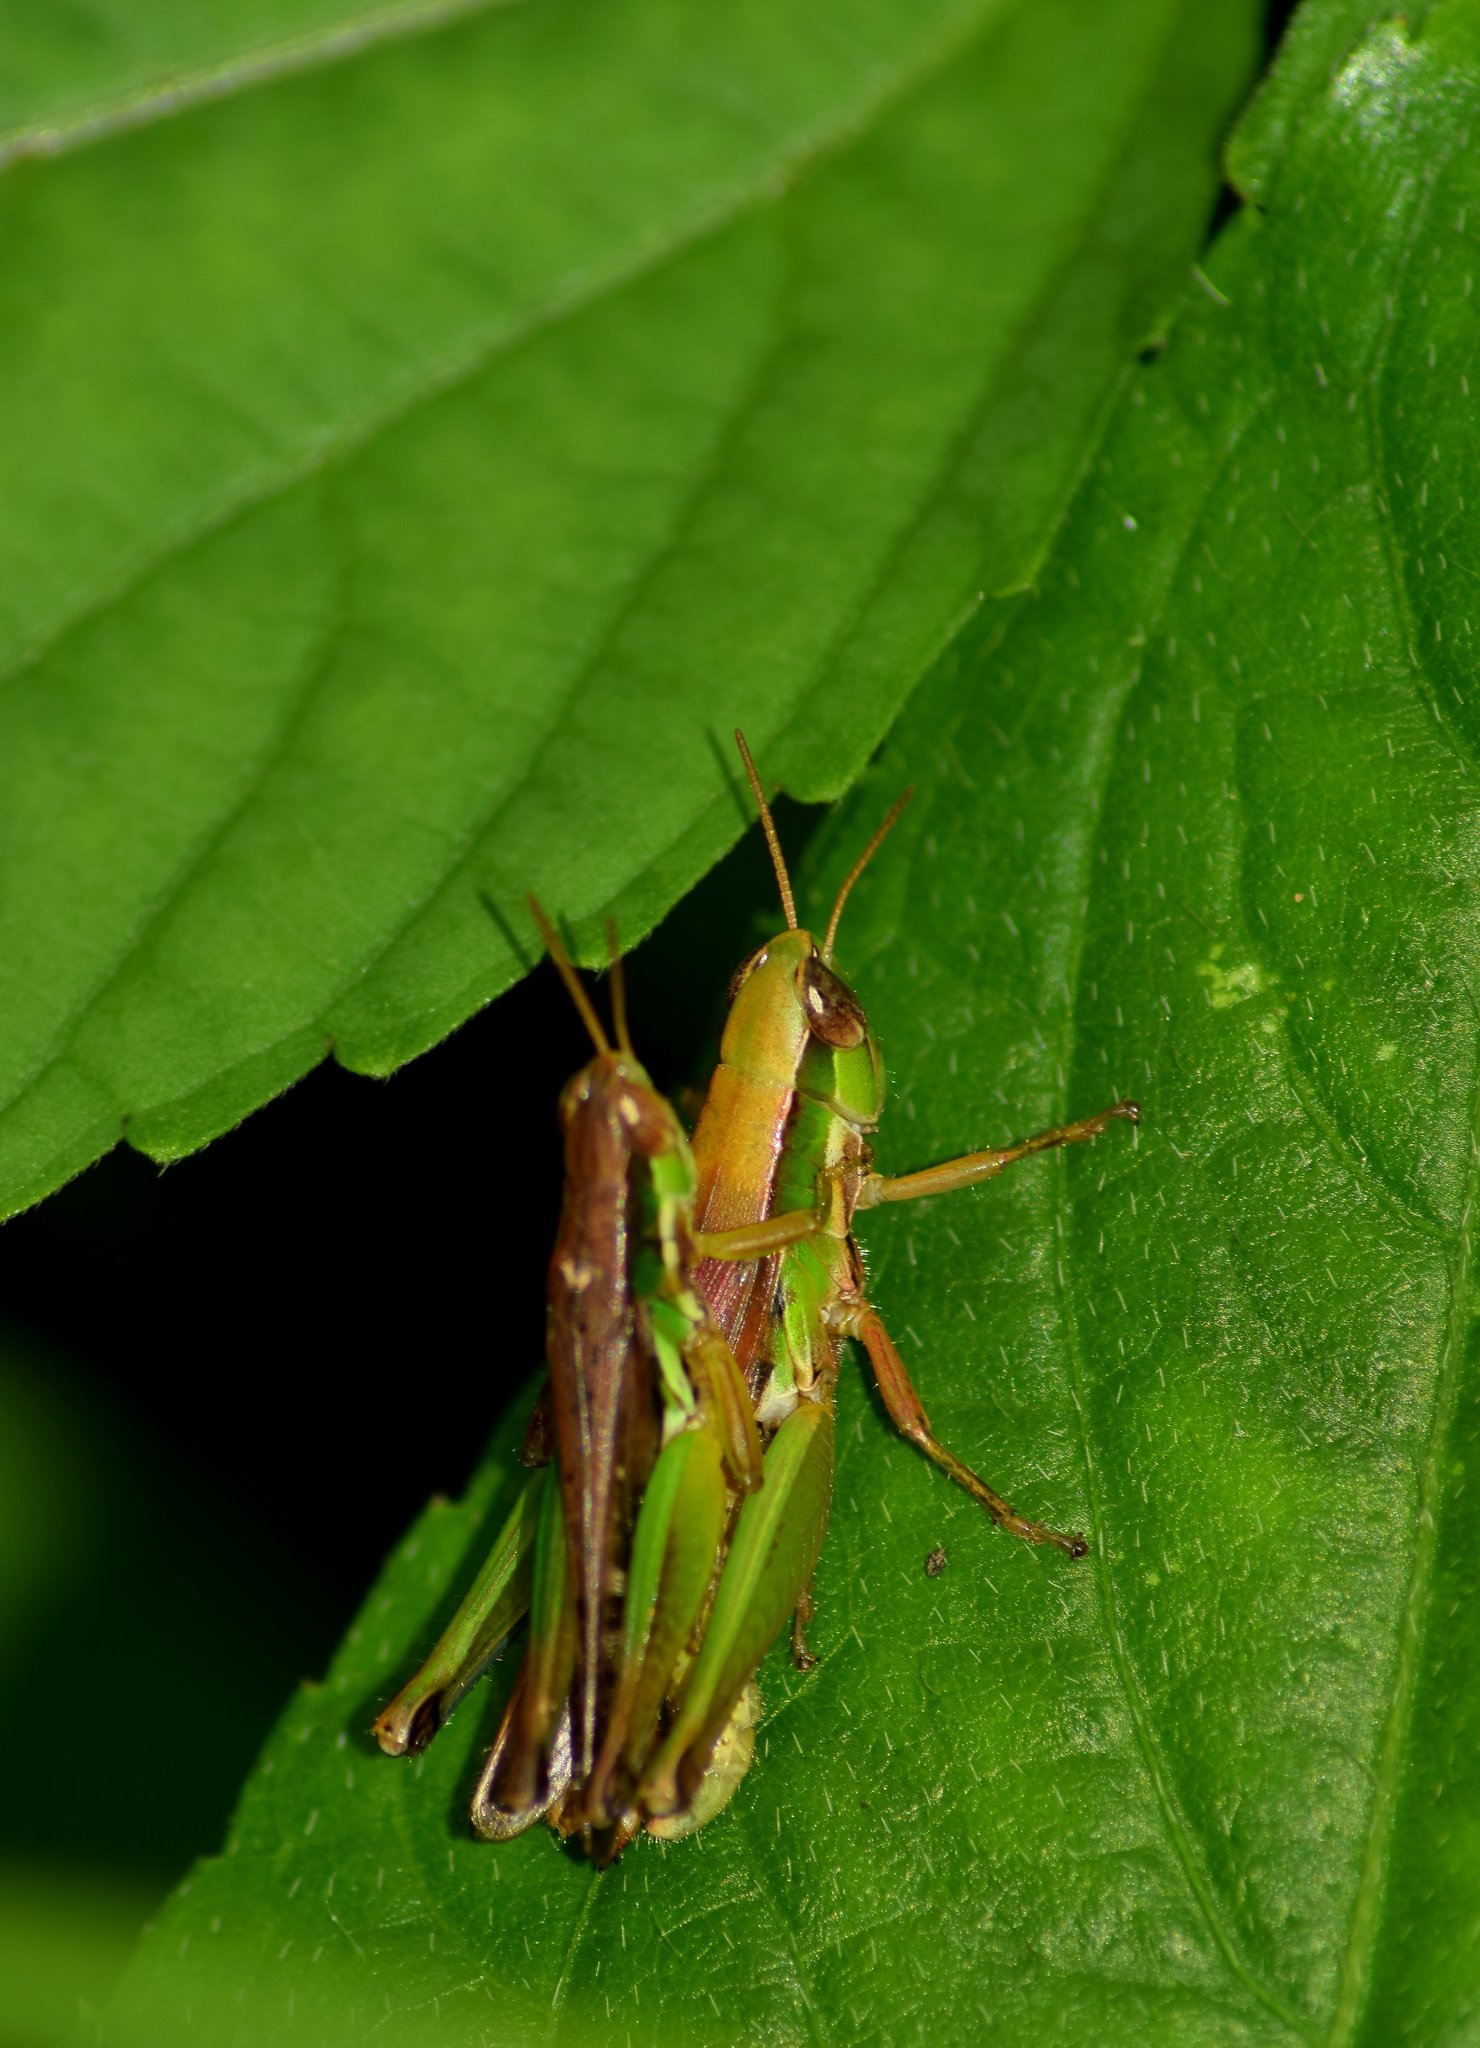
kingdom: Animalia
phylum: Arthropoda
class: Insecta
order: Orthoptera
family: Acrididae
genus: Spathosternum
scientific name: Spathosternum prasiniferum
